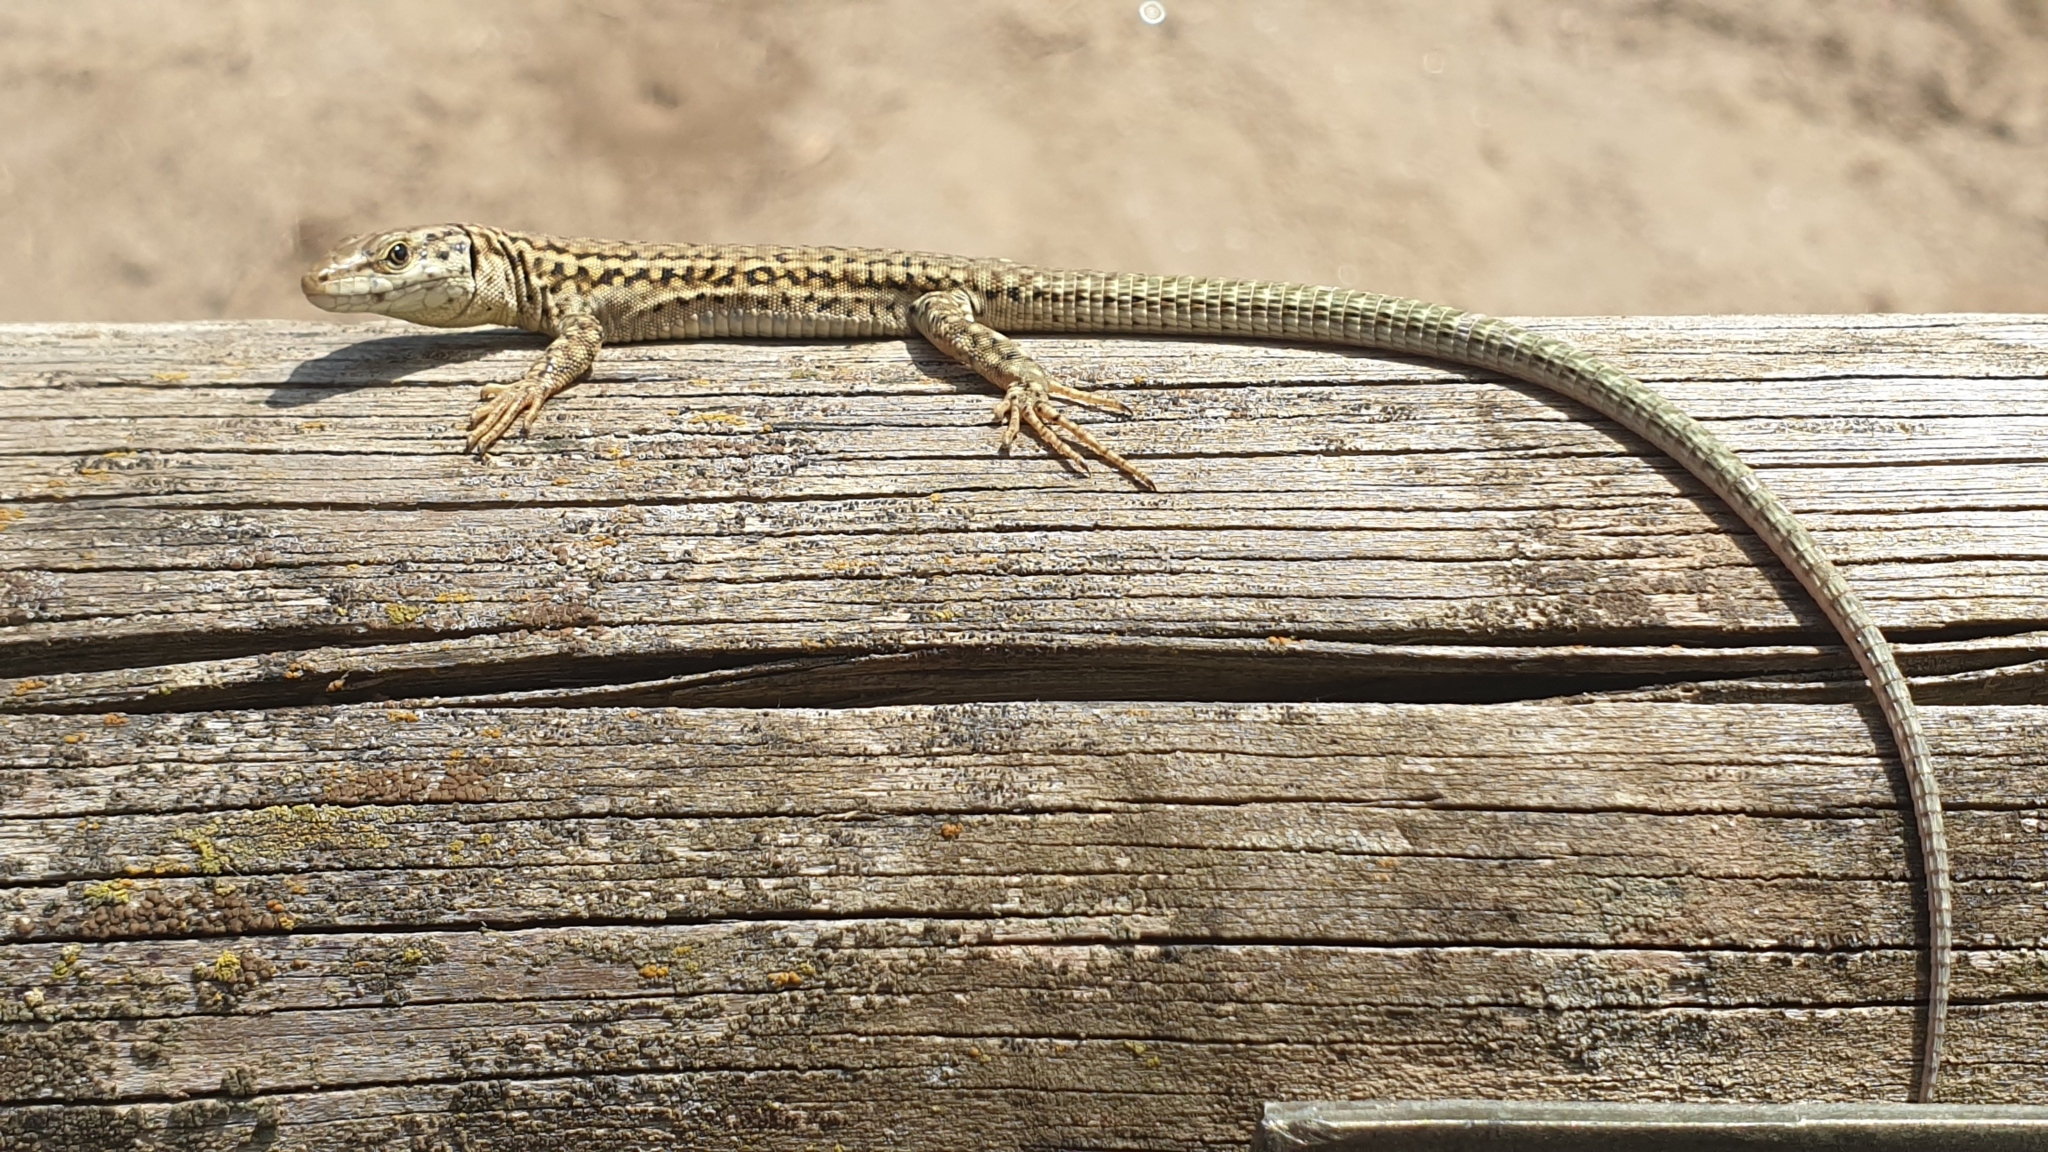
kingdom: Animalia
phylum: Chordata
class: Squamata
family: Lacertidae
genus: Podarcis
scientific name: Podarcis liolepis
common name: Catalonian wall lizard
